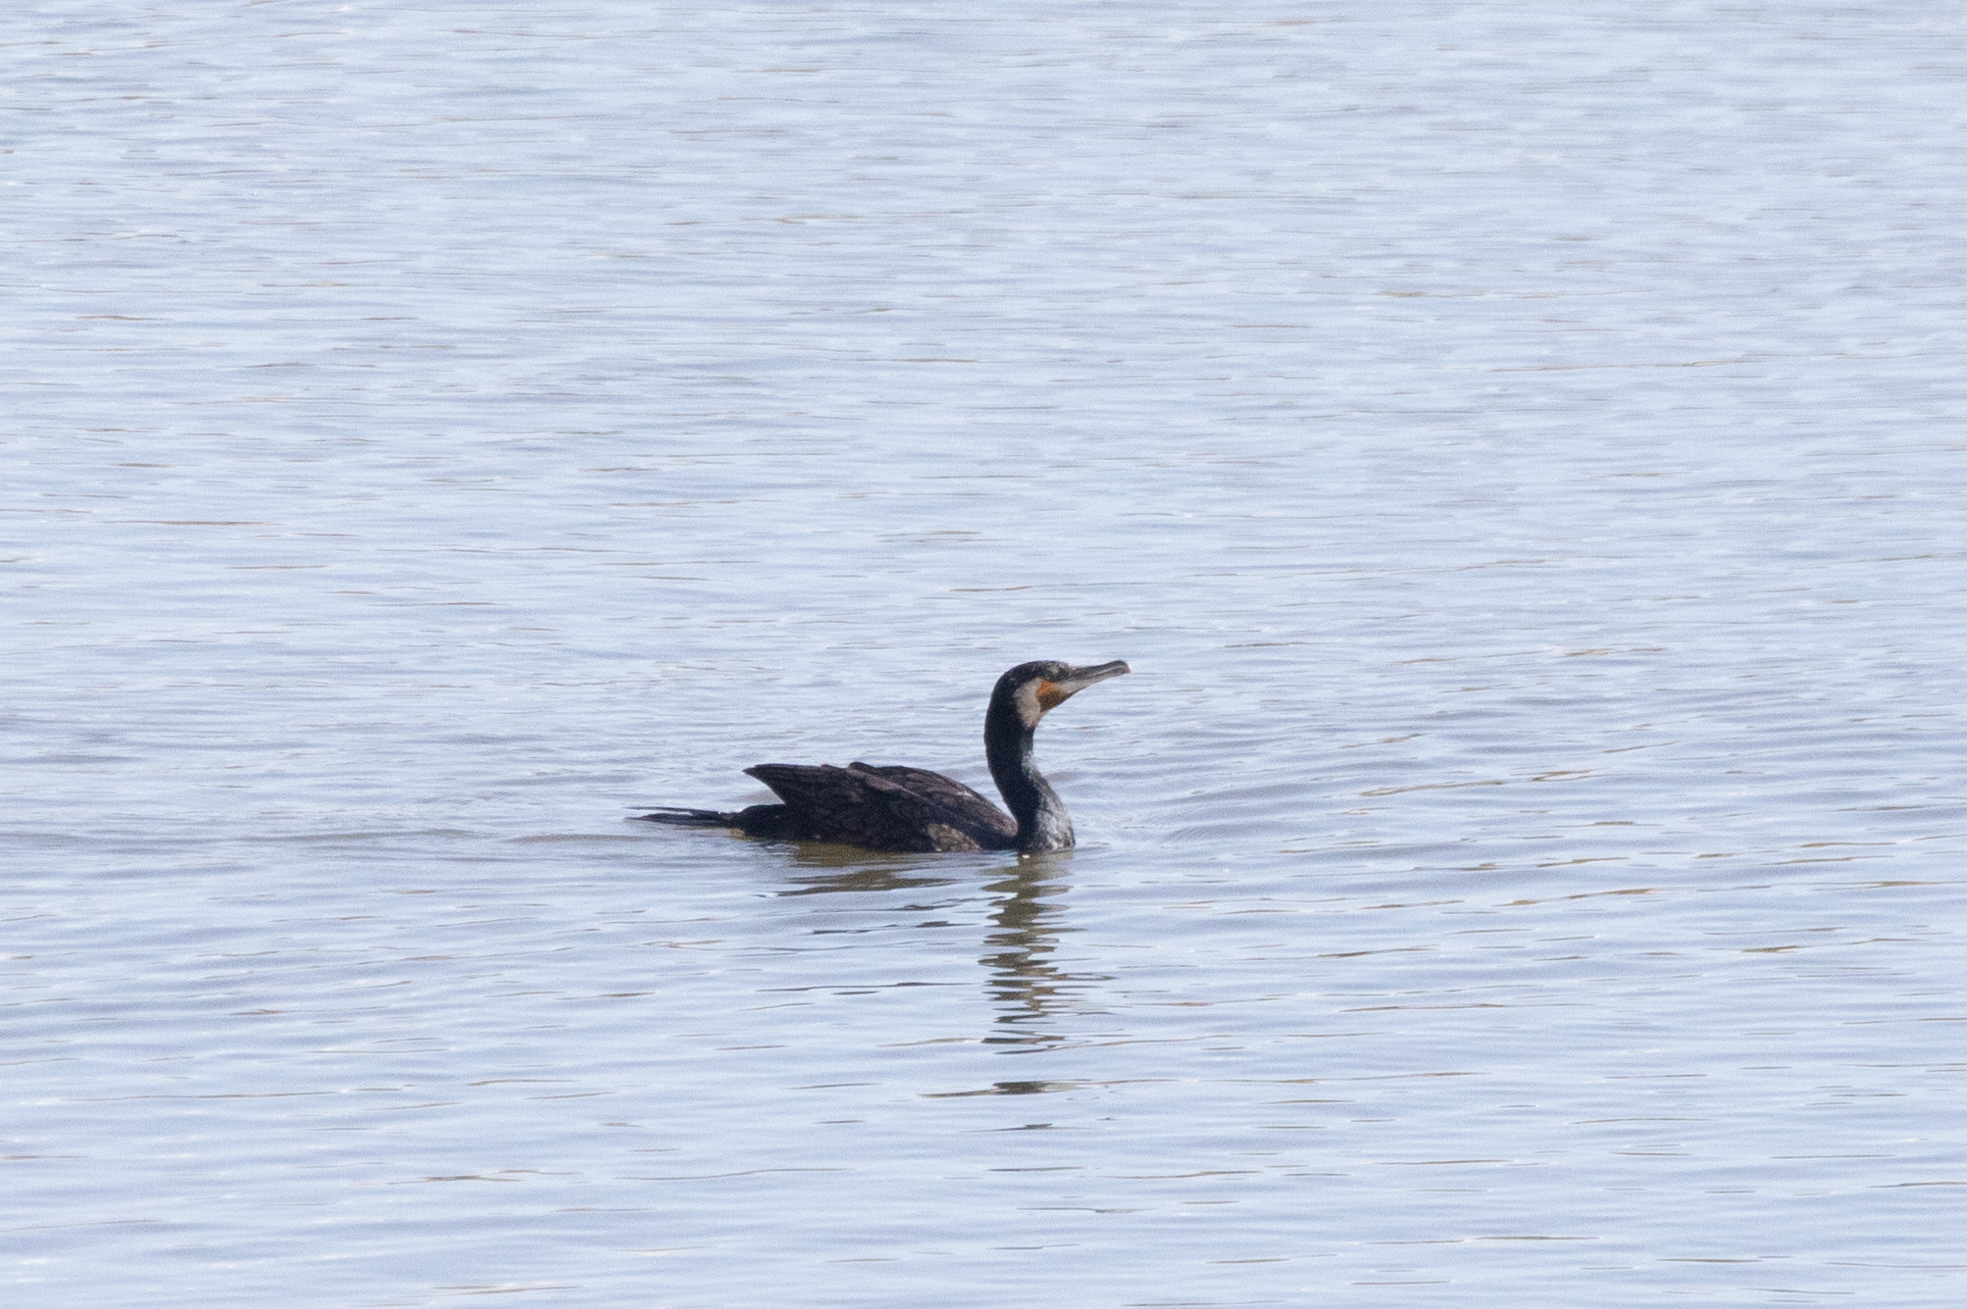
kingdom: Animalia
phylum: Chordata
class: Aves
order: Suliformes
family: Phalacrocoracidae
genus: Phalacrocorax
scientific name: Phalacrocorax carbo
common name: Great cormorant
